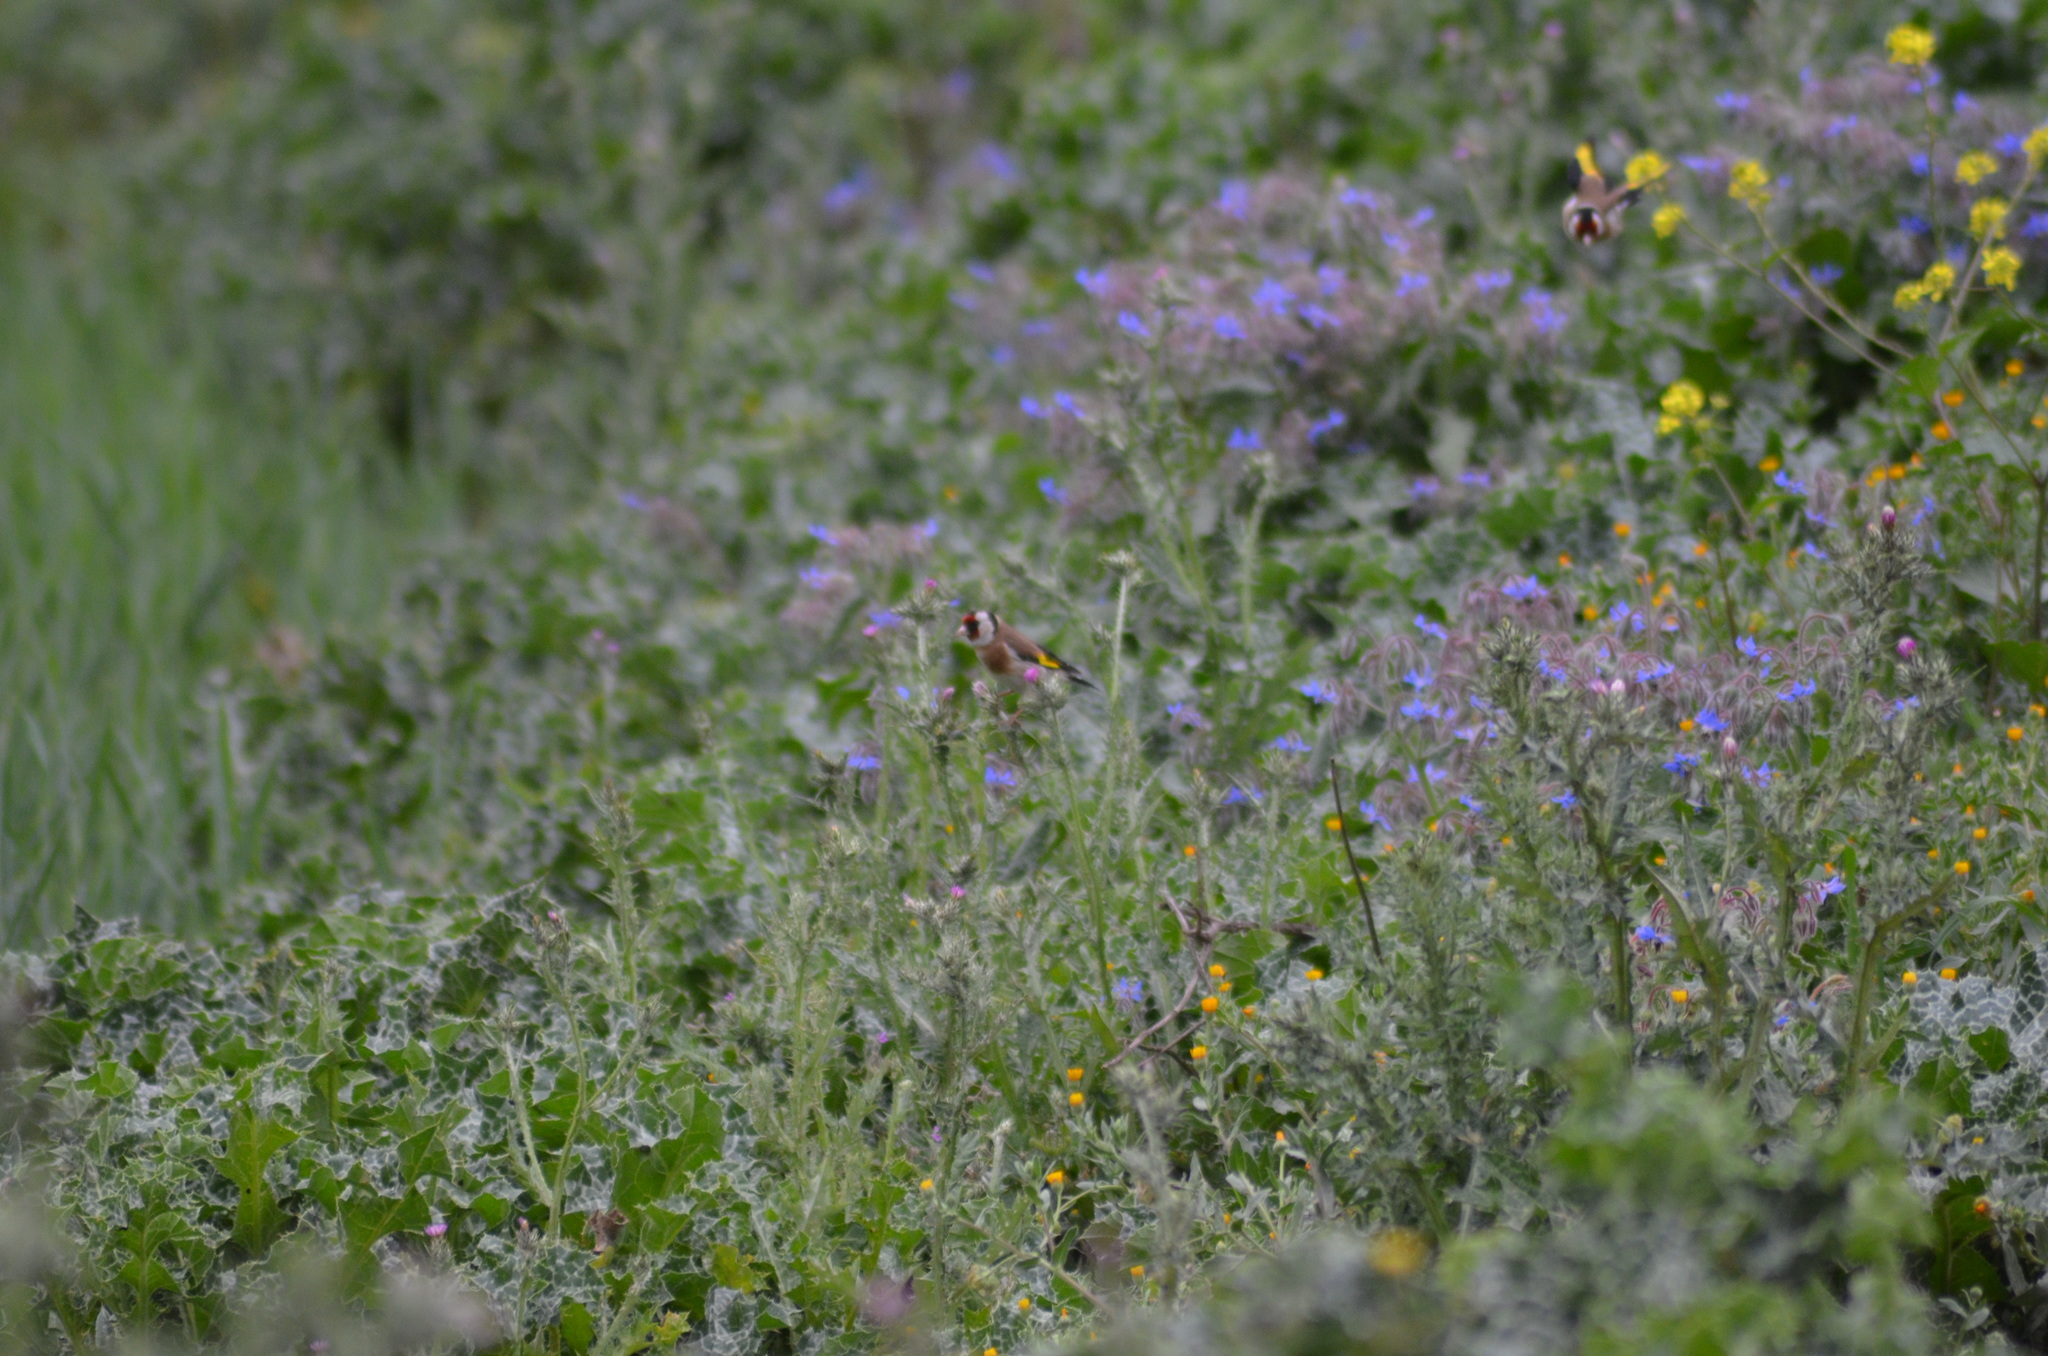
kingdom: Animalia
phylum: Chordata
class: Aves
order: Passeriformes
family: Fringillidae
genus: Carduelis
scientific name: Carduelis carduelis
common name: European goldfinch
